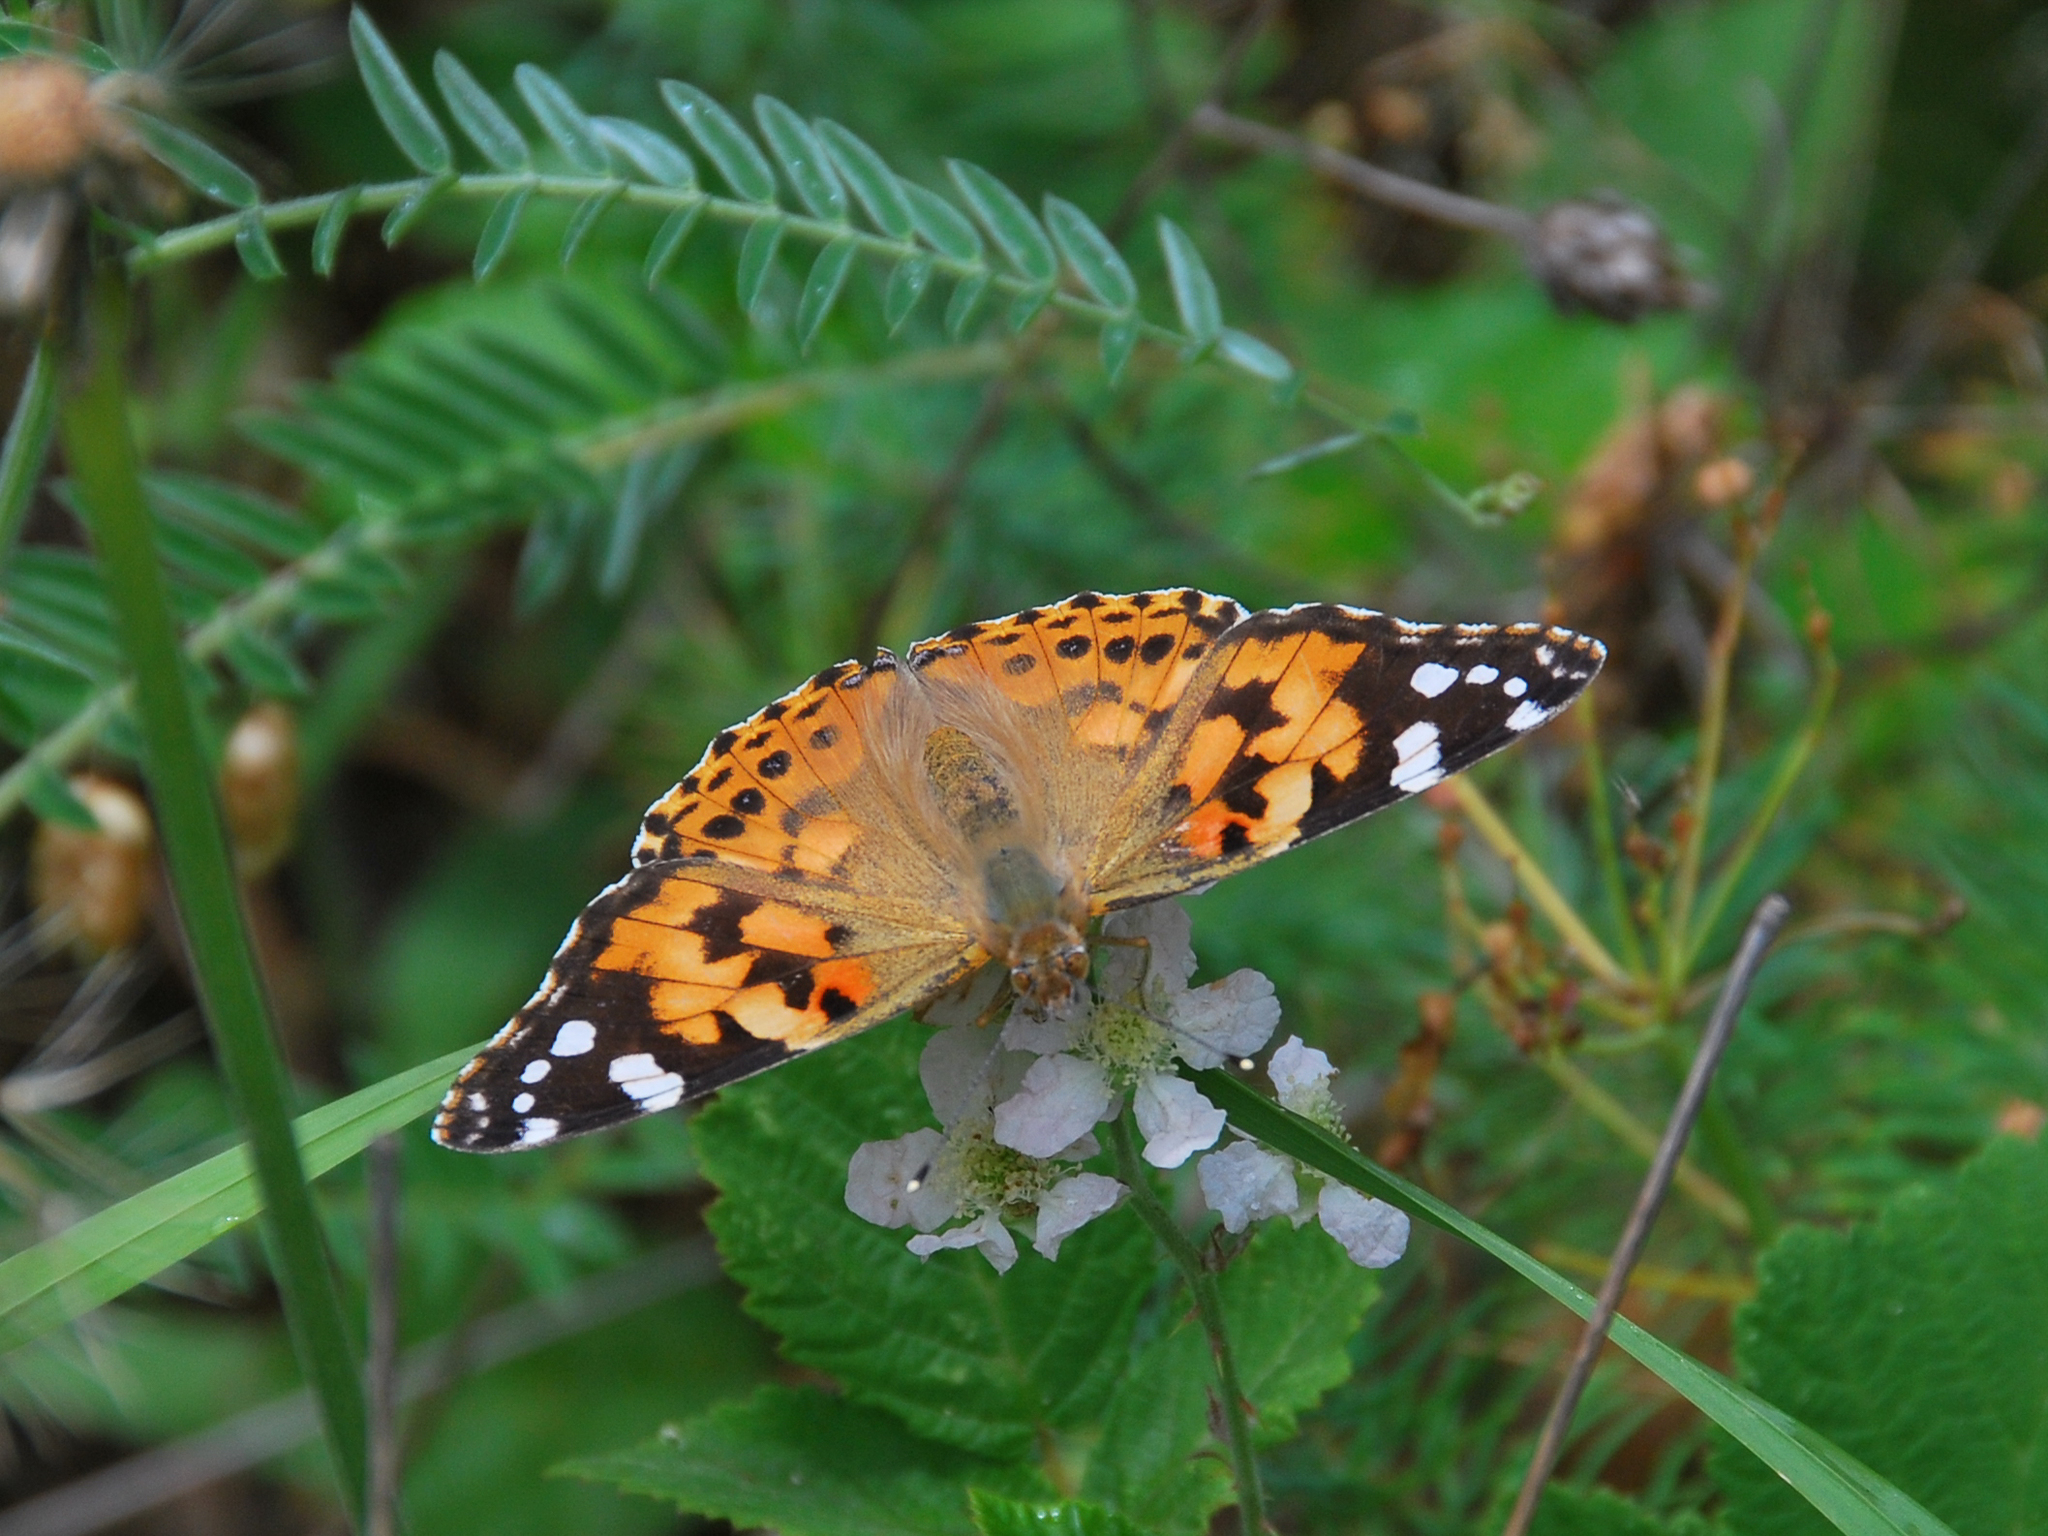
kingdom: Animalia
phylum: Arthropoda
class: Insecta
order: Lepidoptera
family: Nymphalidae
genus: Vanessa
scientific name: Vanessa cardui
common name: Painted lady
